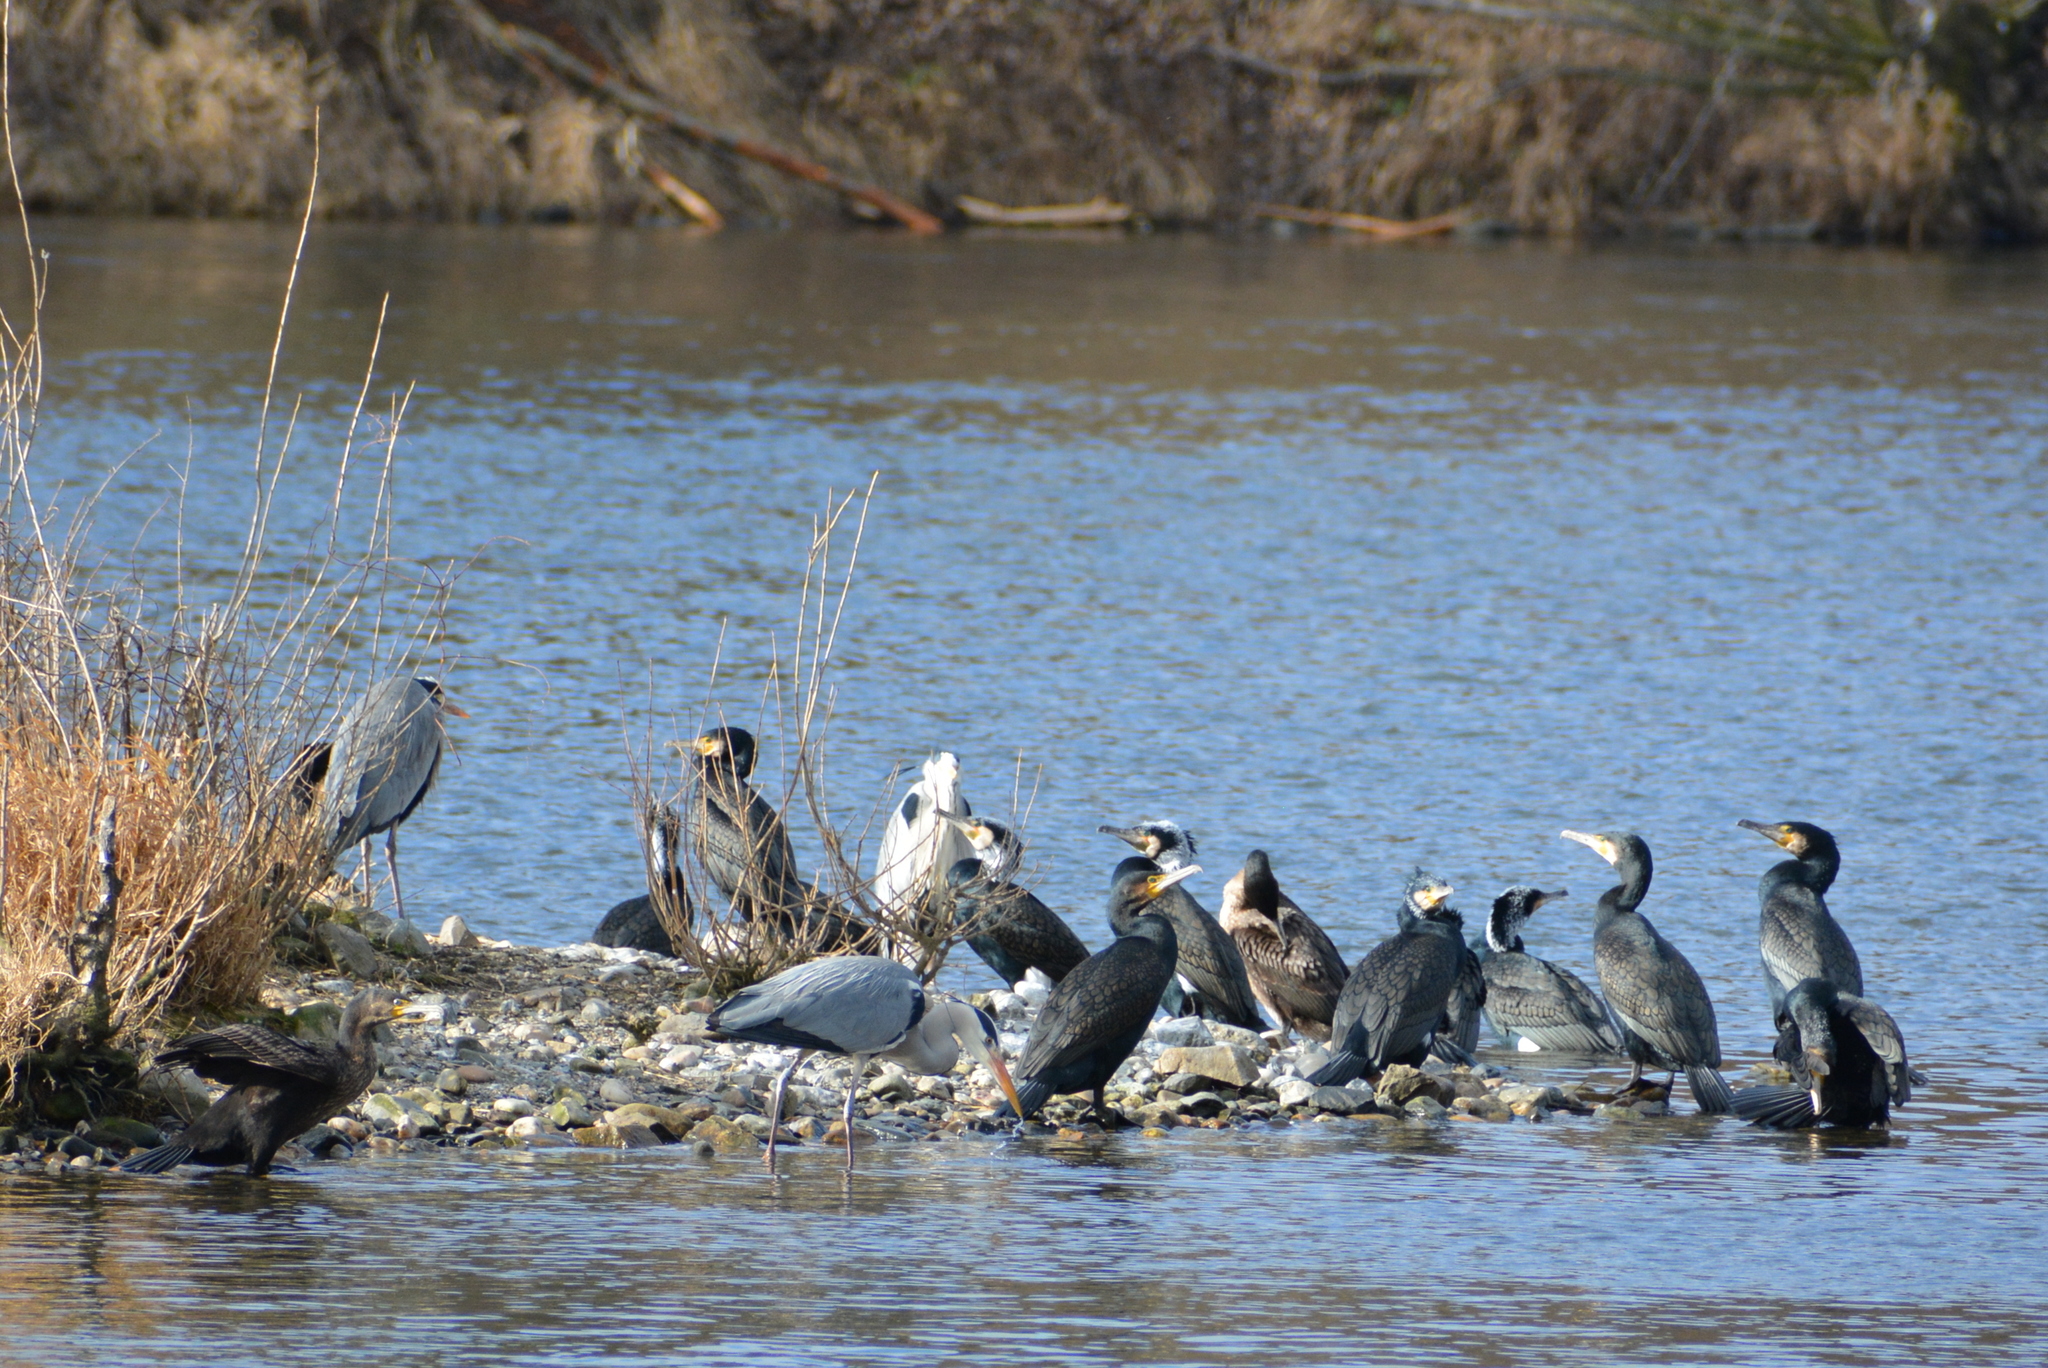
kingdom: Animalia
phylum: Chordata
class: Aves
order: Suliformes
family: Phalacrocoracidae
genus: Phalacrocorax
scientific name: Phalacrocorax carbo
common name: Great cormorant
